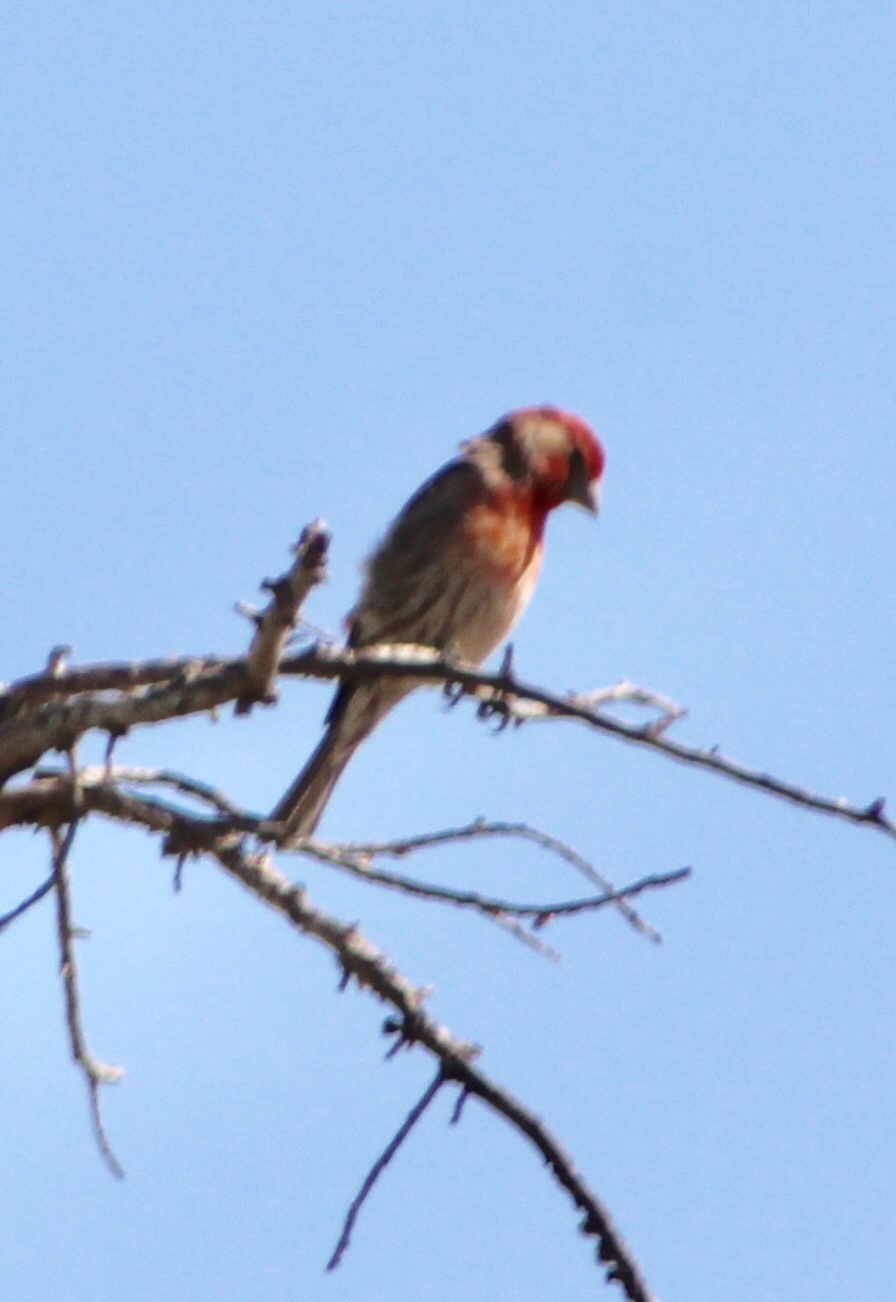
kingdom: Animalia
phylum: Chordata
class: Aves
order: Passeriformes
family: Fringillidae
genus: Haemorhous
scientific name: Haemorhous mexicanus
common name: House finch
